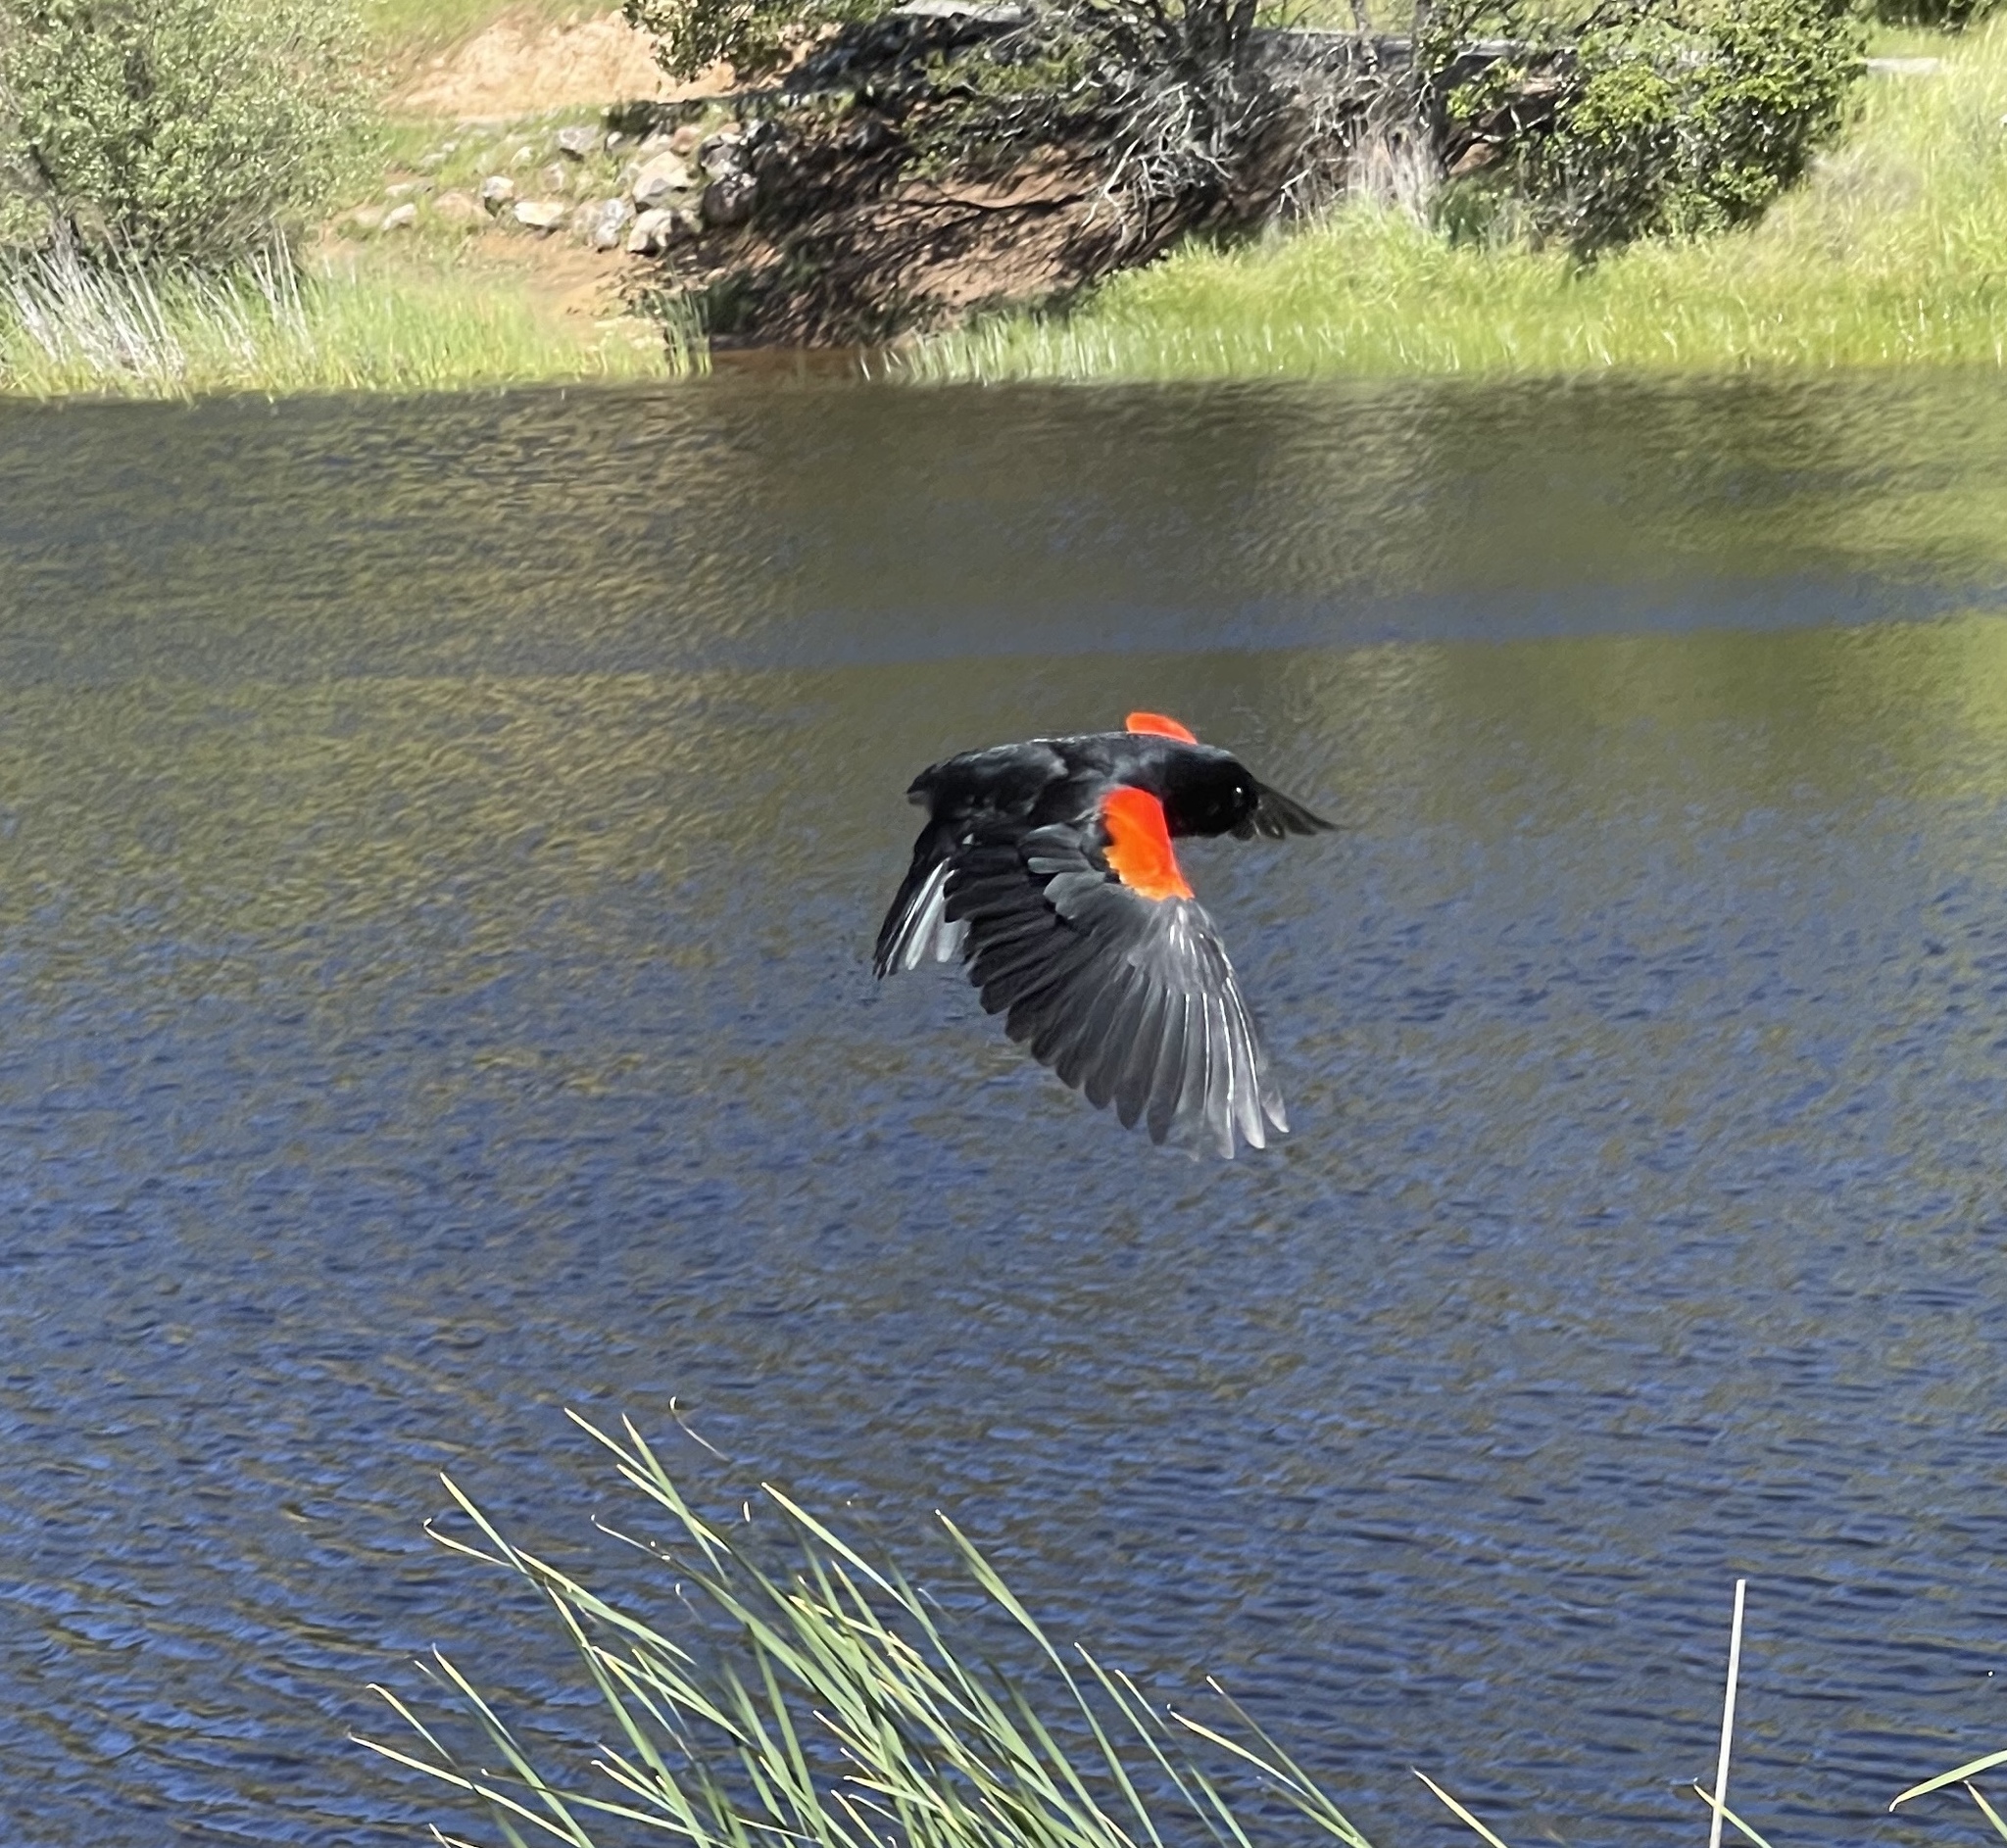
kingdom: Animalia
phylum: Chordata
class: Aves
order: Passeriformes
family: Icteridae
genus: Agelaius
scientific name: Agelaius phoeniceus
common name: Red-winged blackbird
